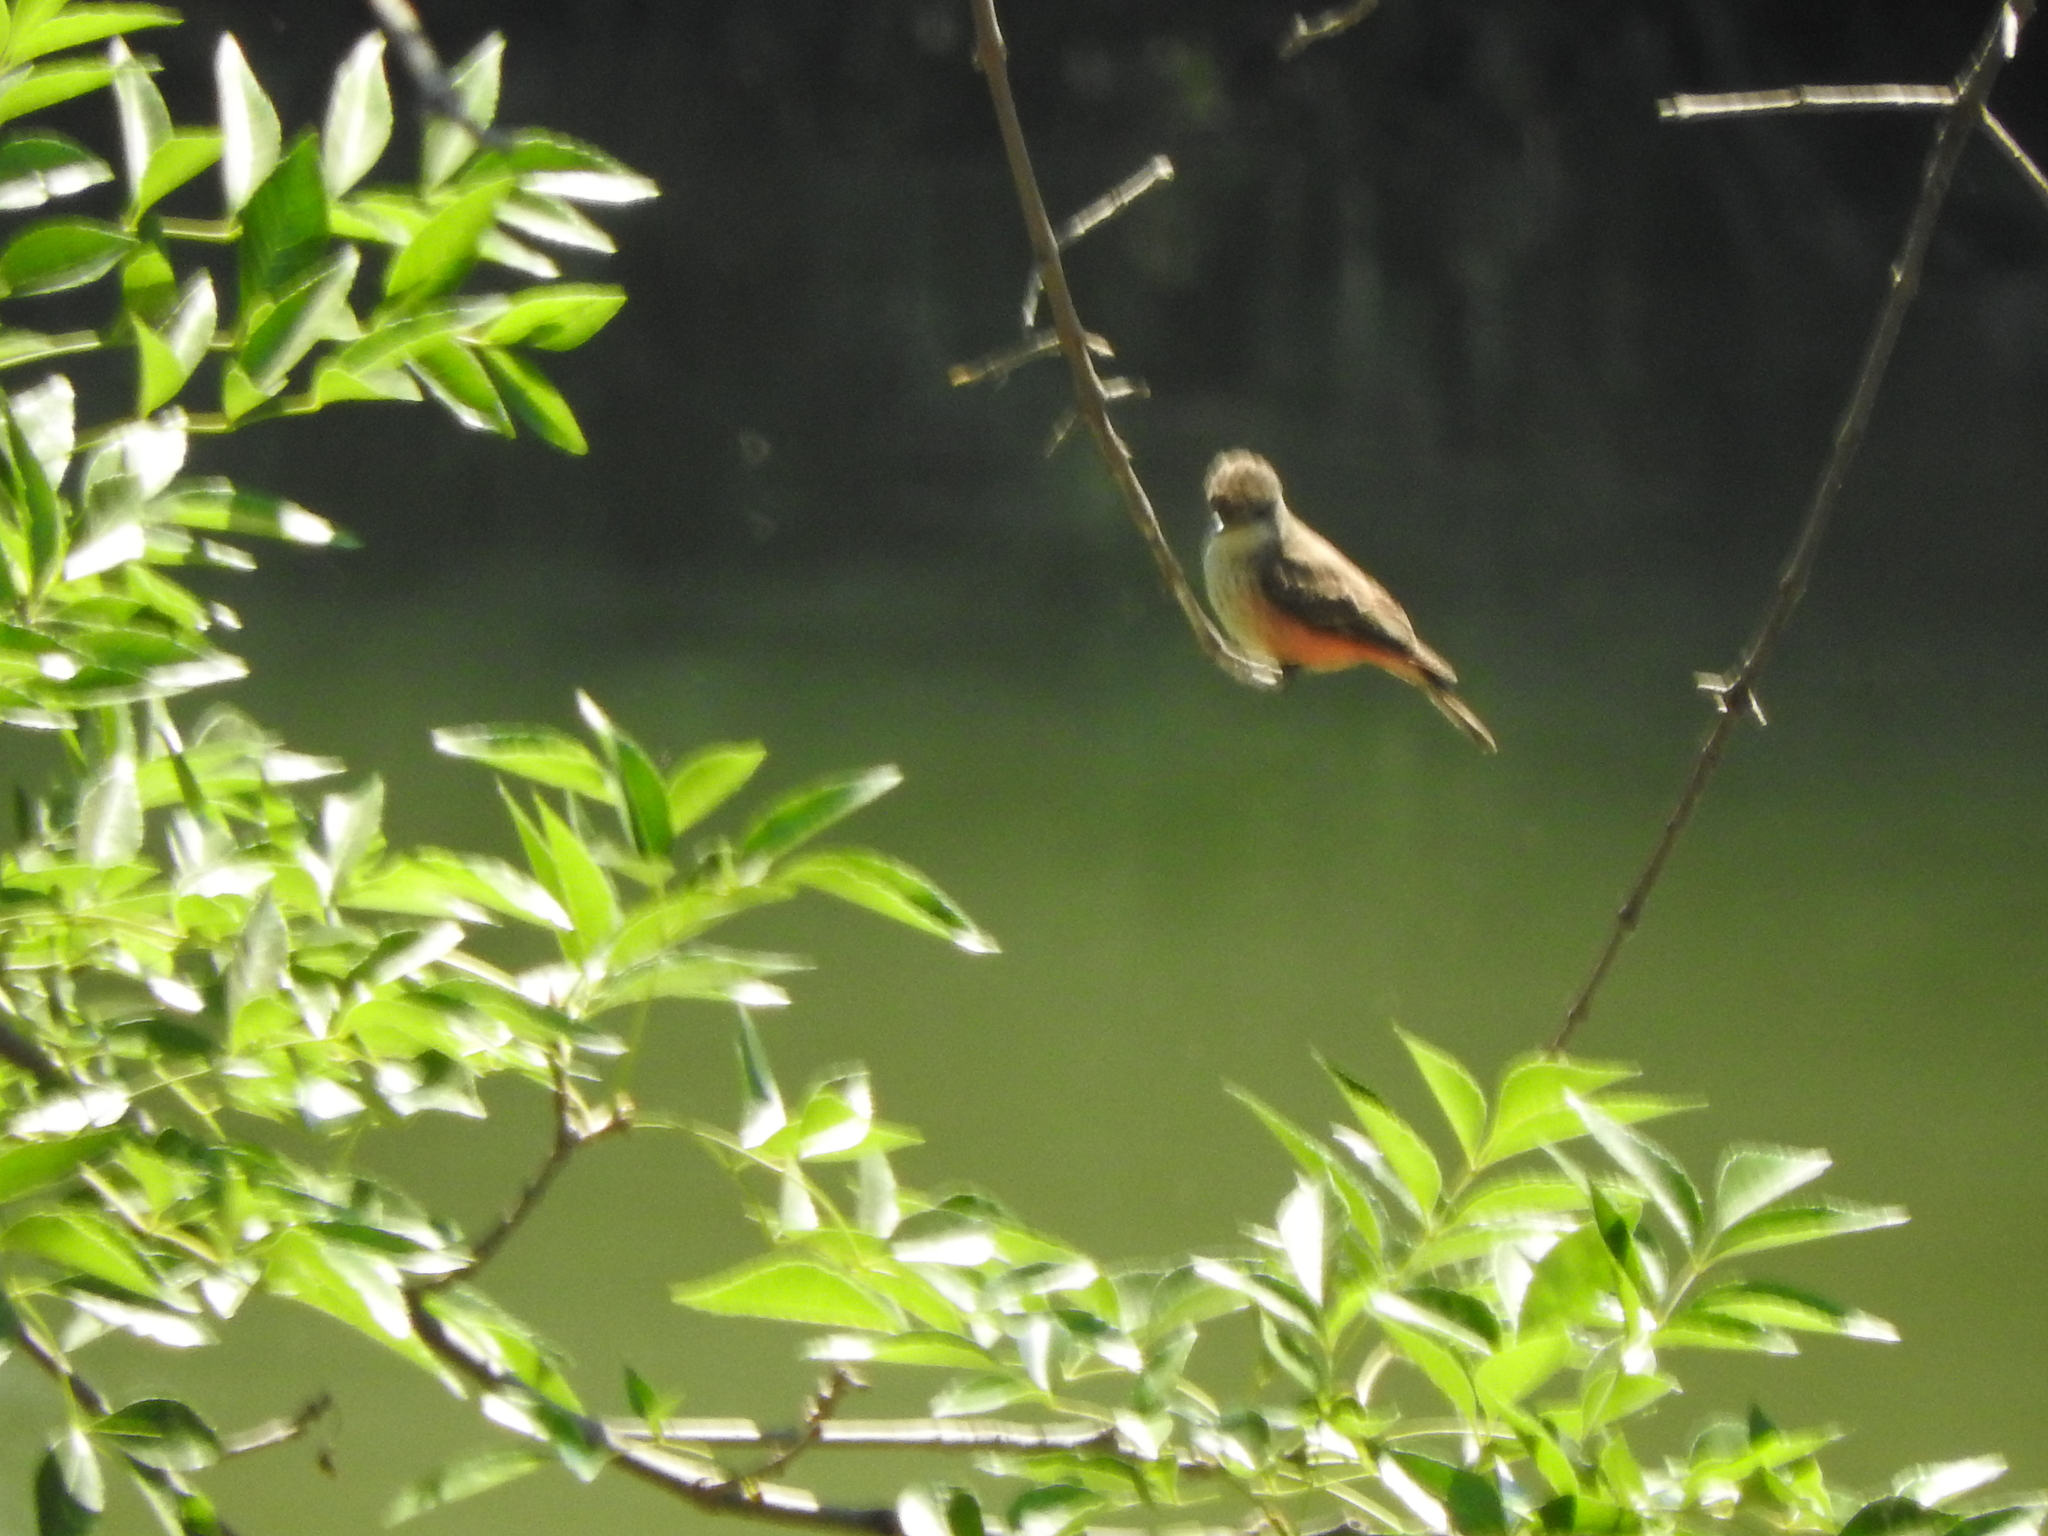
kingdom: Animalia
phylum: Chordata
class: Aves
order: Passeriformes
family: Tyrannidae
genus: Pyrocephalus
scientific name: Pyrocephalus rubinus
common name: Vermilion flycatcher
